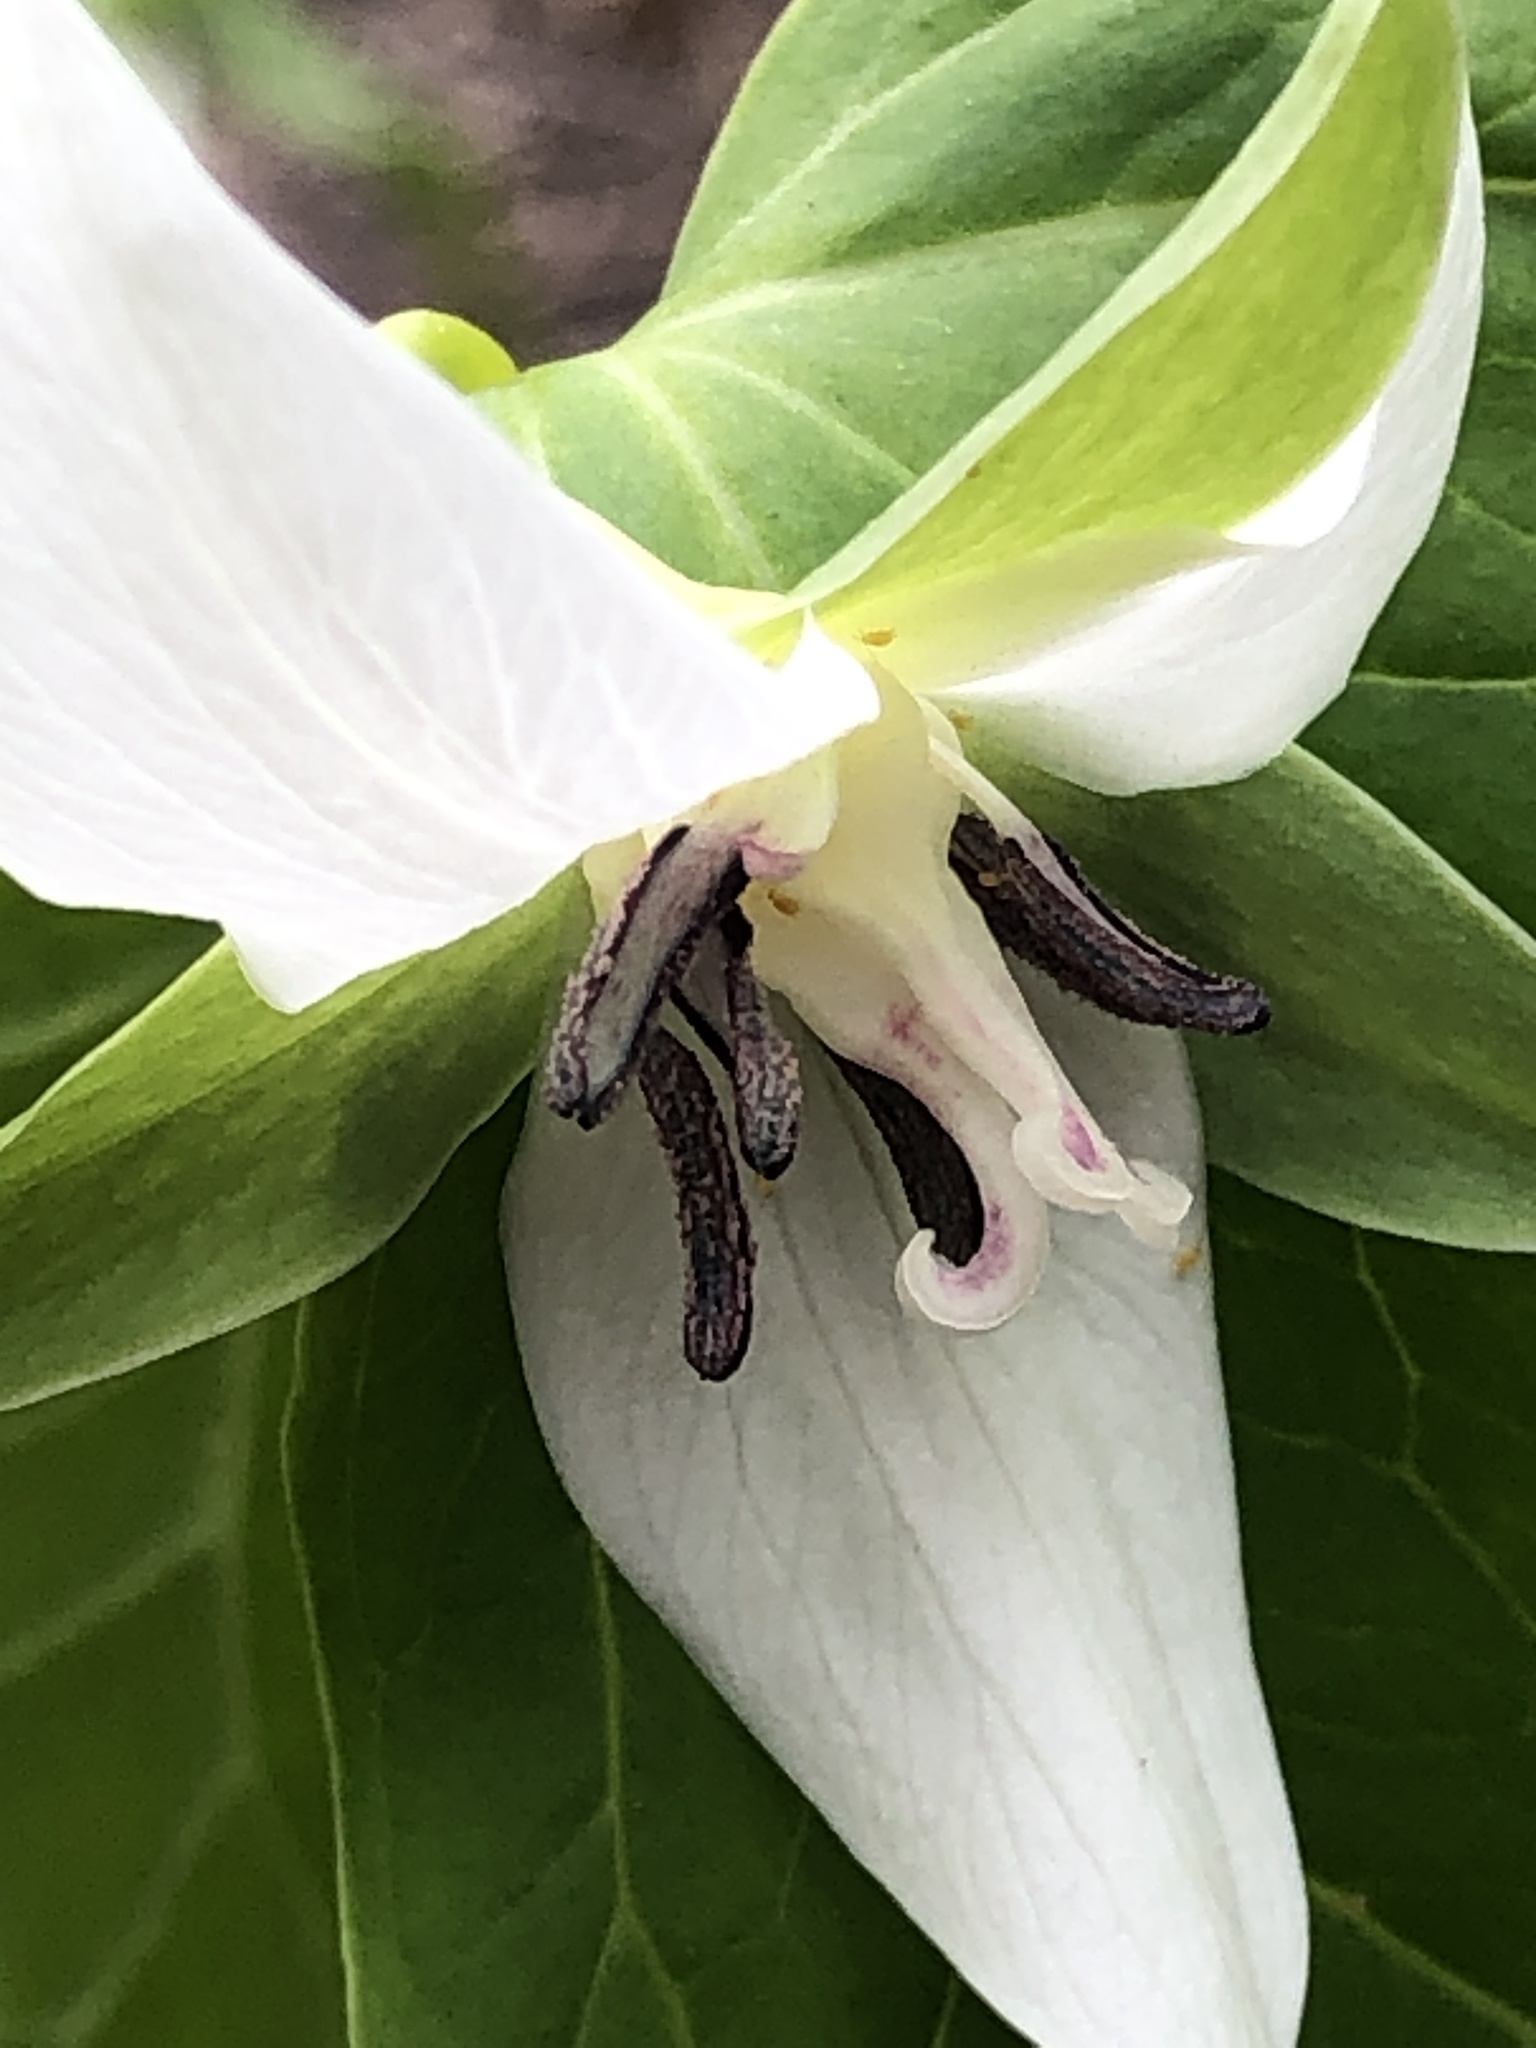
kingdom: Plantae
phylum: Tracheophyta
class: Liliopsida
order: Liliales
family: Melanthiaceae
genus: Trillium
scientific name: Trillium cernuum
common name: Nodding trillium
